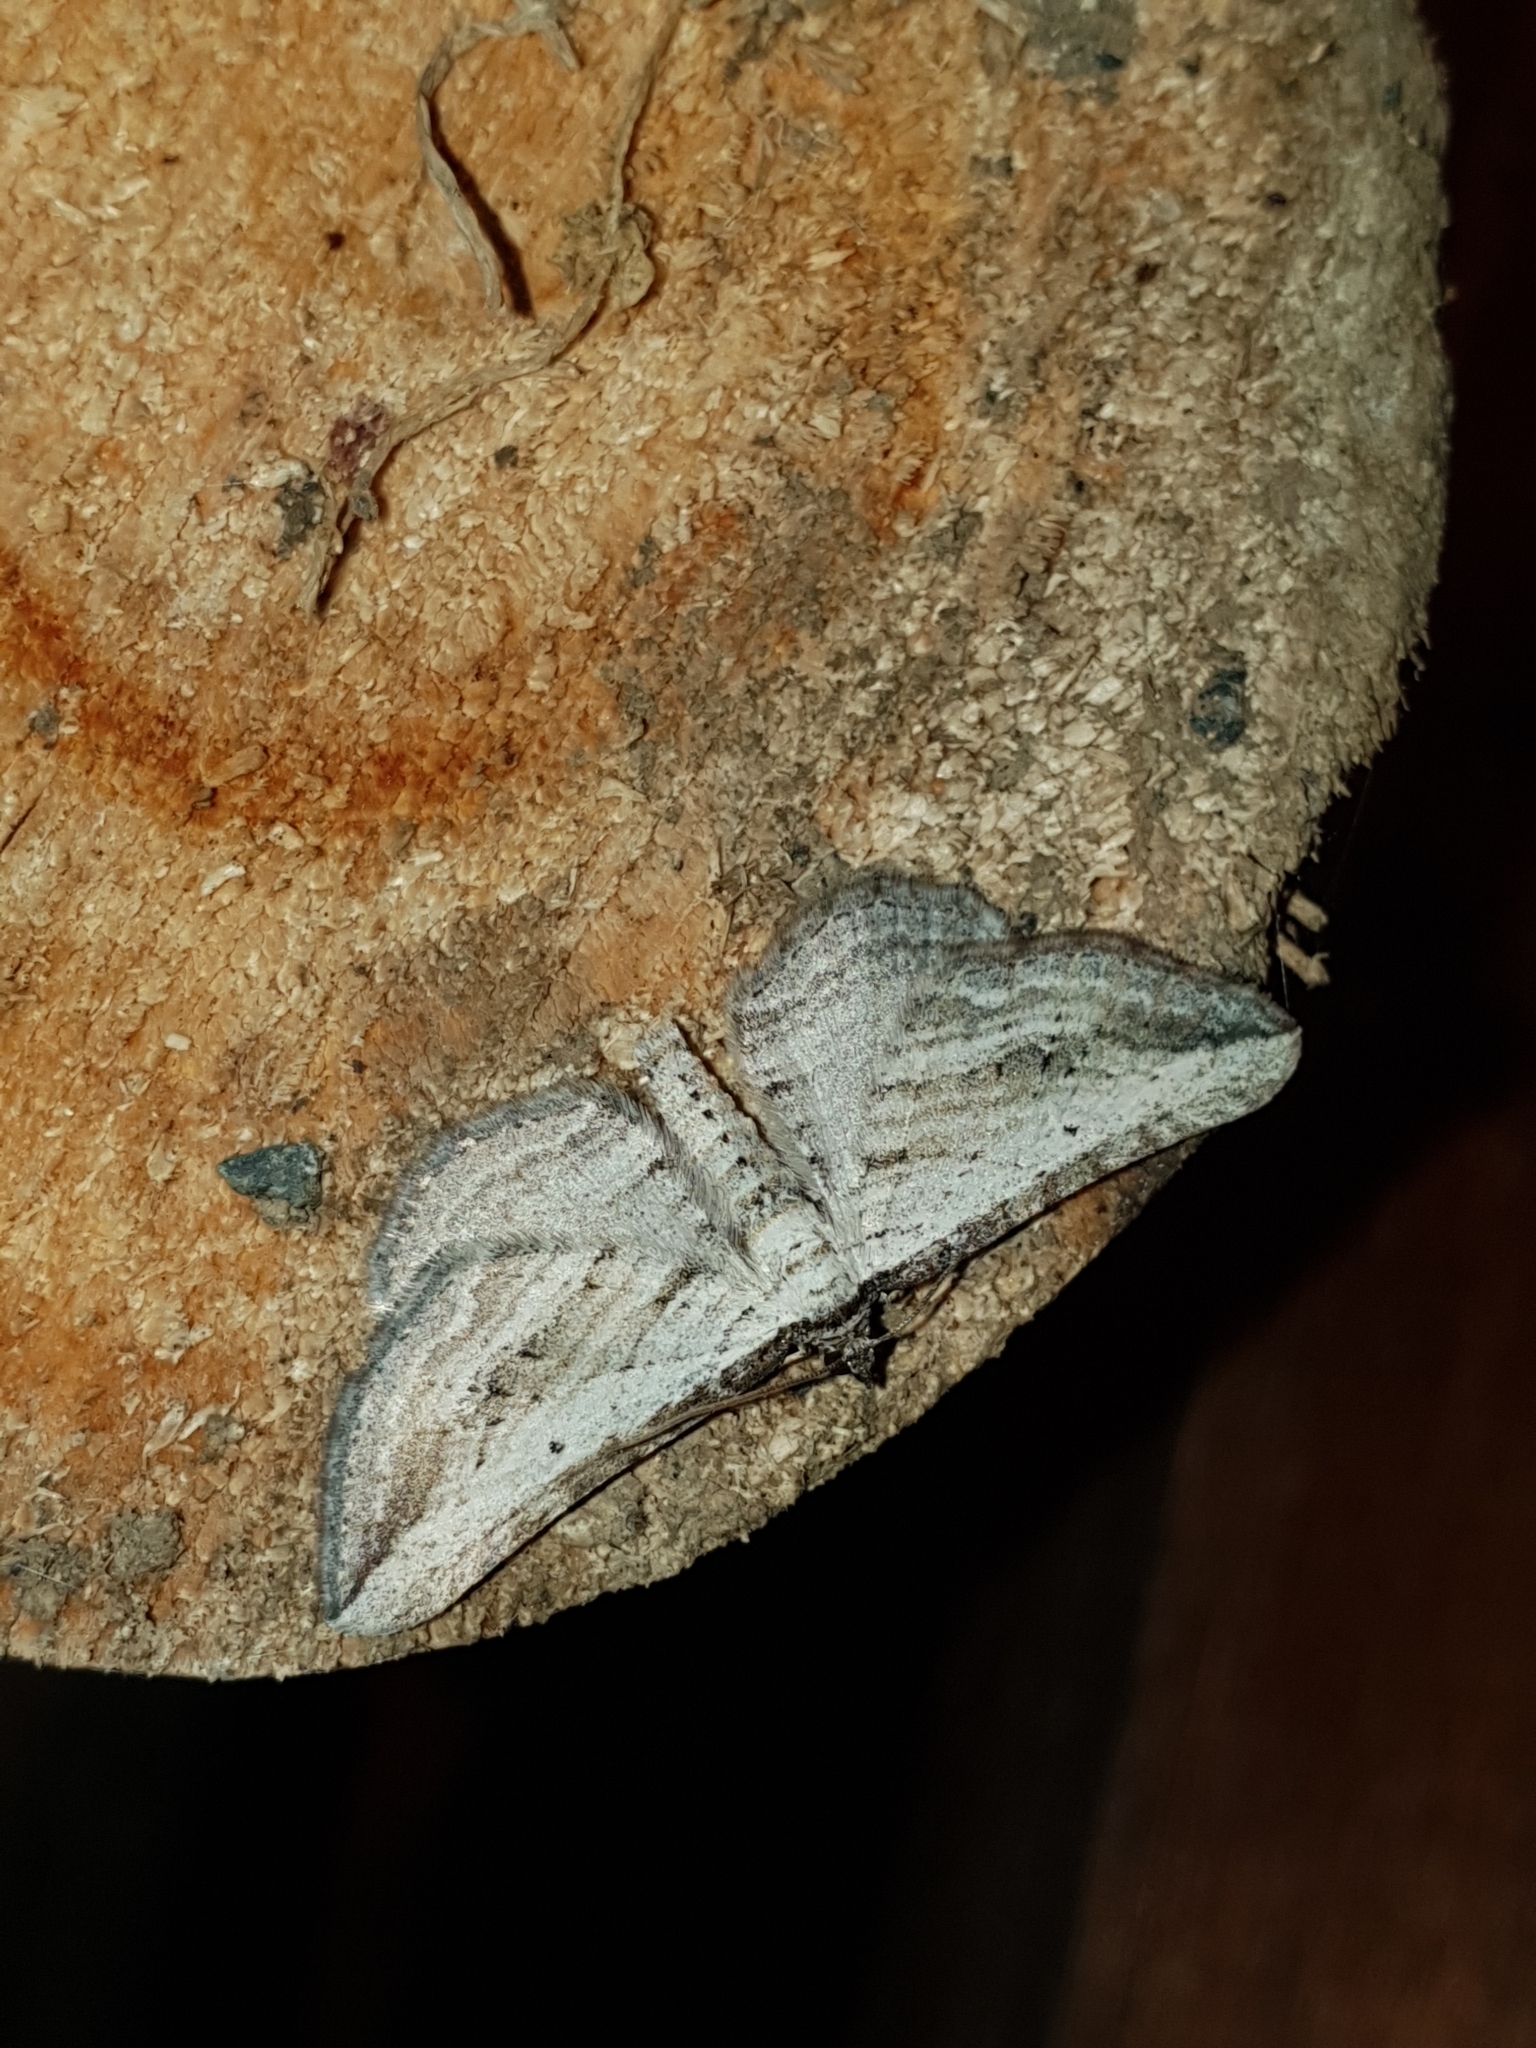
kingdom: Animalia
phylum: Arthropoda
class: Insecta
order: Lepidoptera
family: Geometridae
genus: Horisme
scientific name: Horisme aquata
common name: Cumbrian umber
